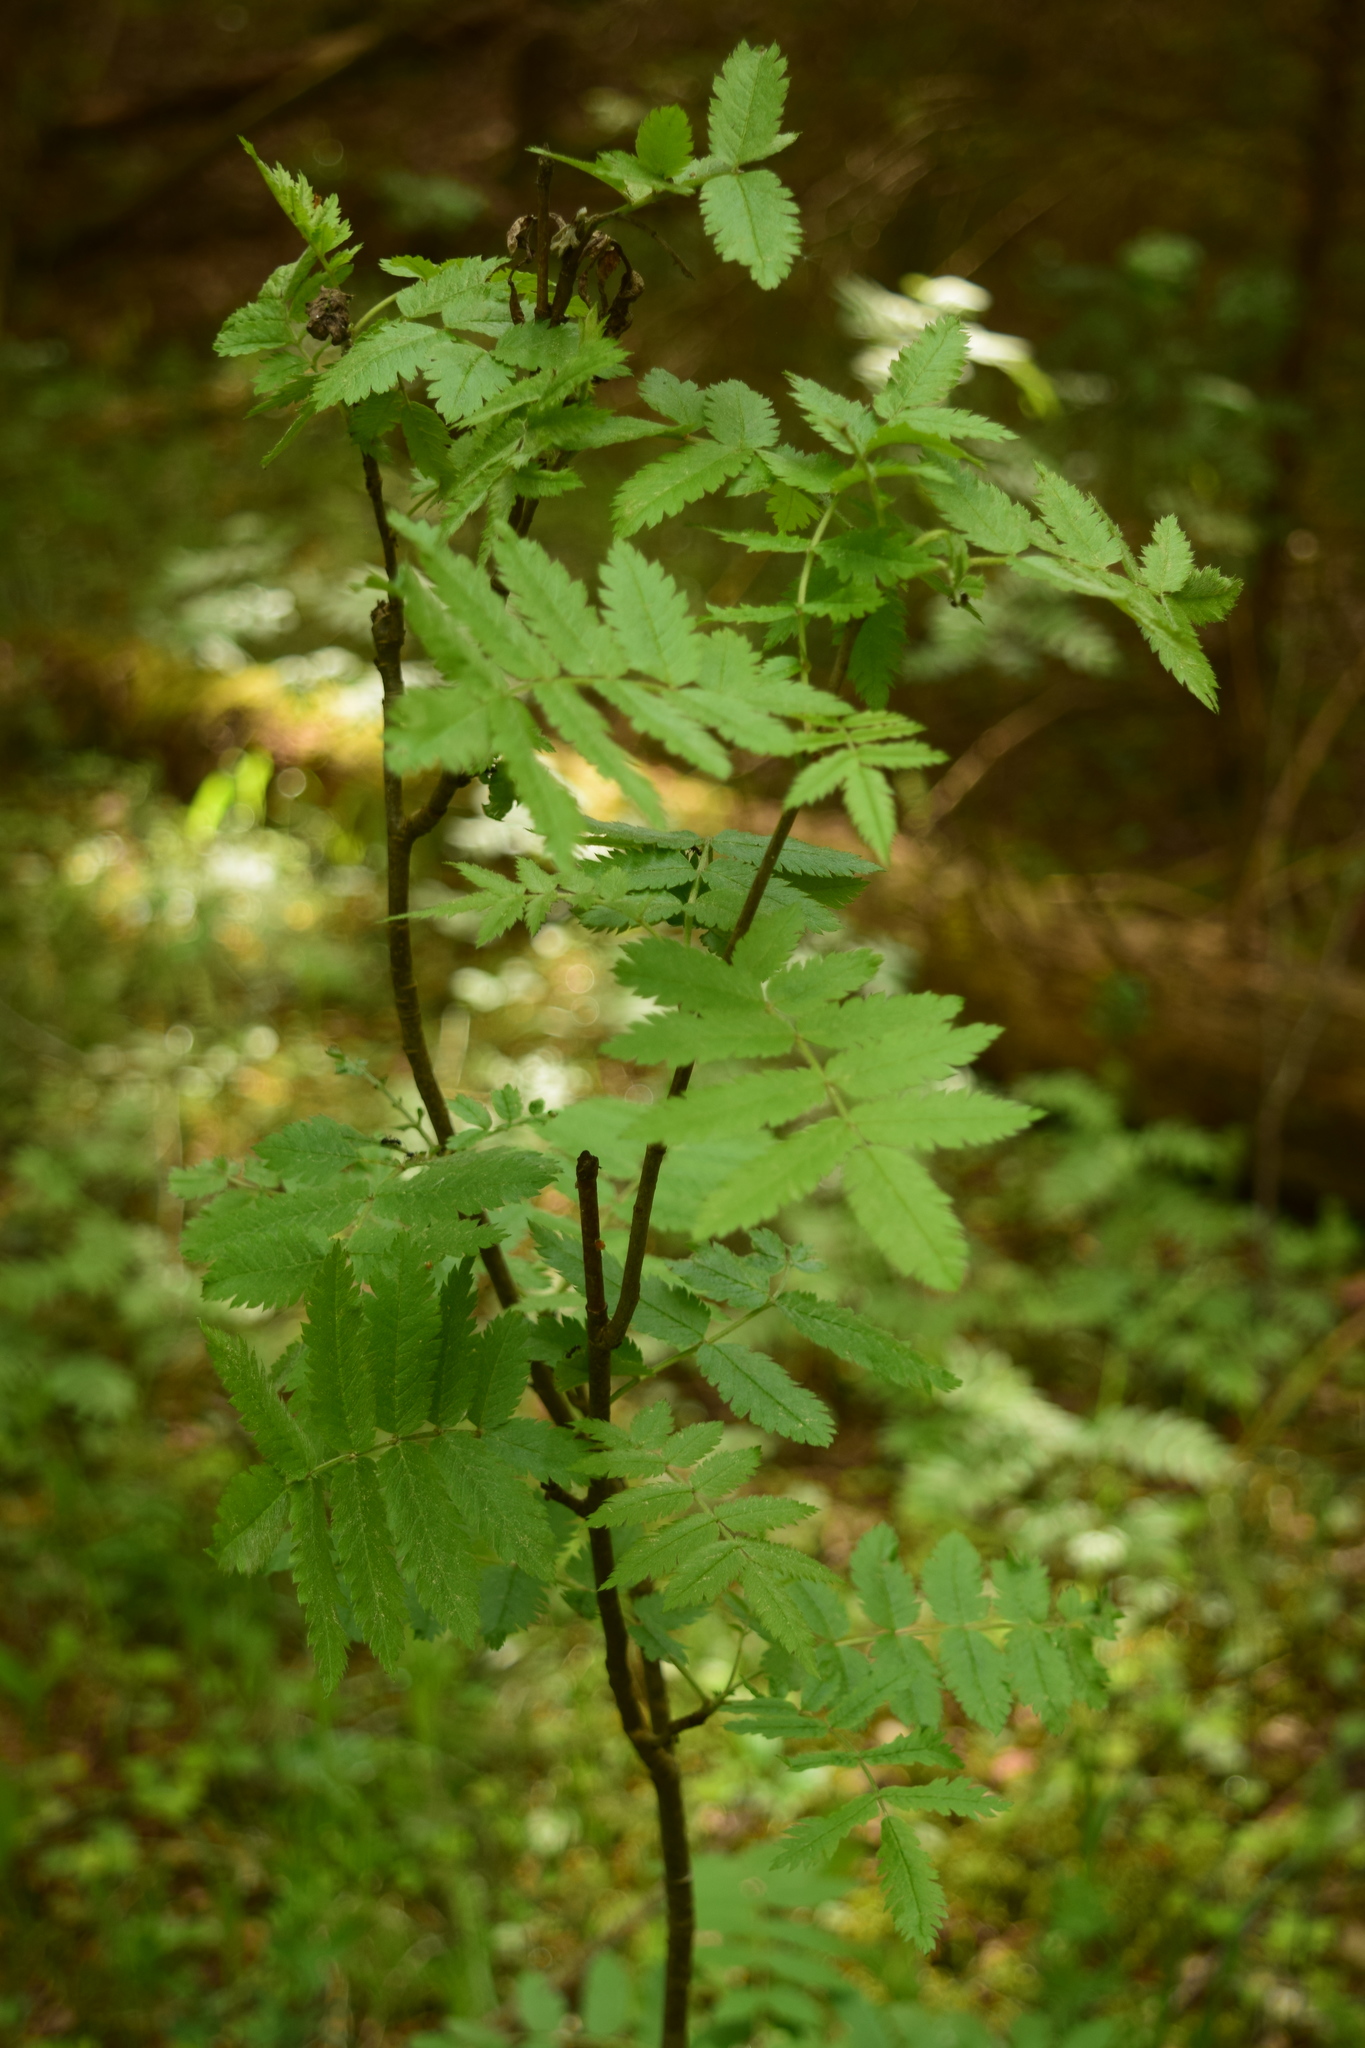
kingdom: Plantae
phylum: Tracheophyta
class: Magnoliopsida
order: Rosales
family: Rosaceae
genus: Sorbus
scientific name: Sorbus aucuparia
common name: Rowan
